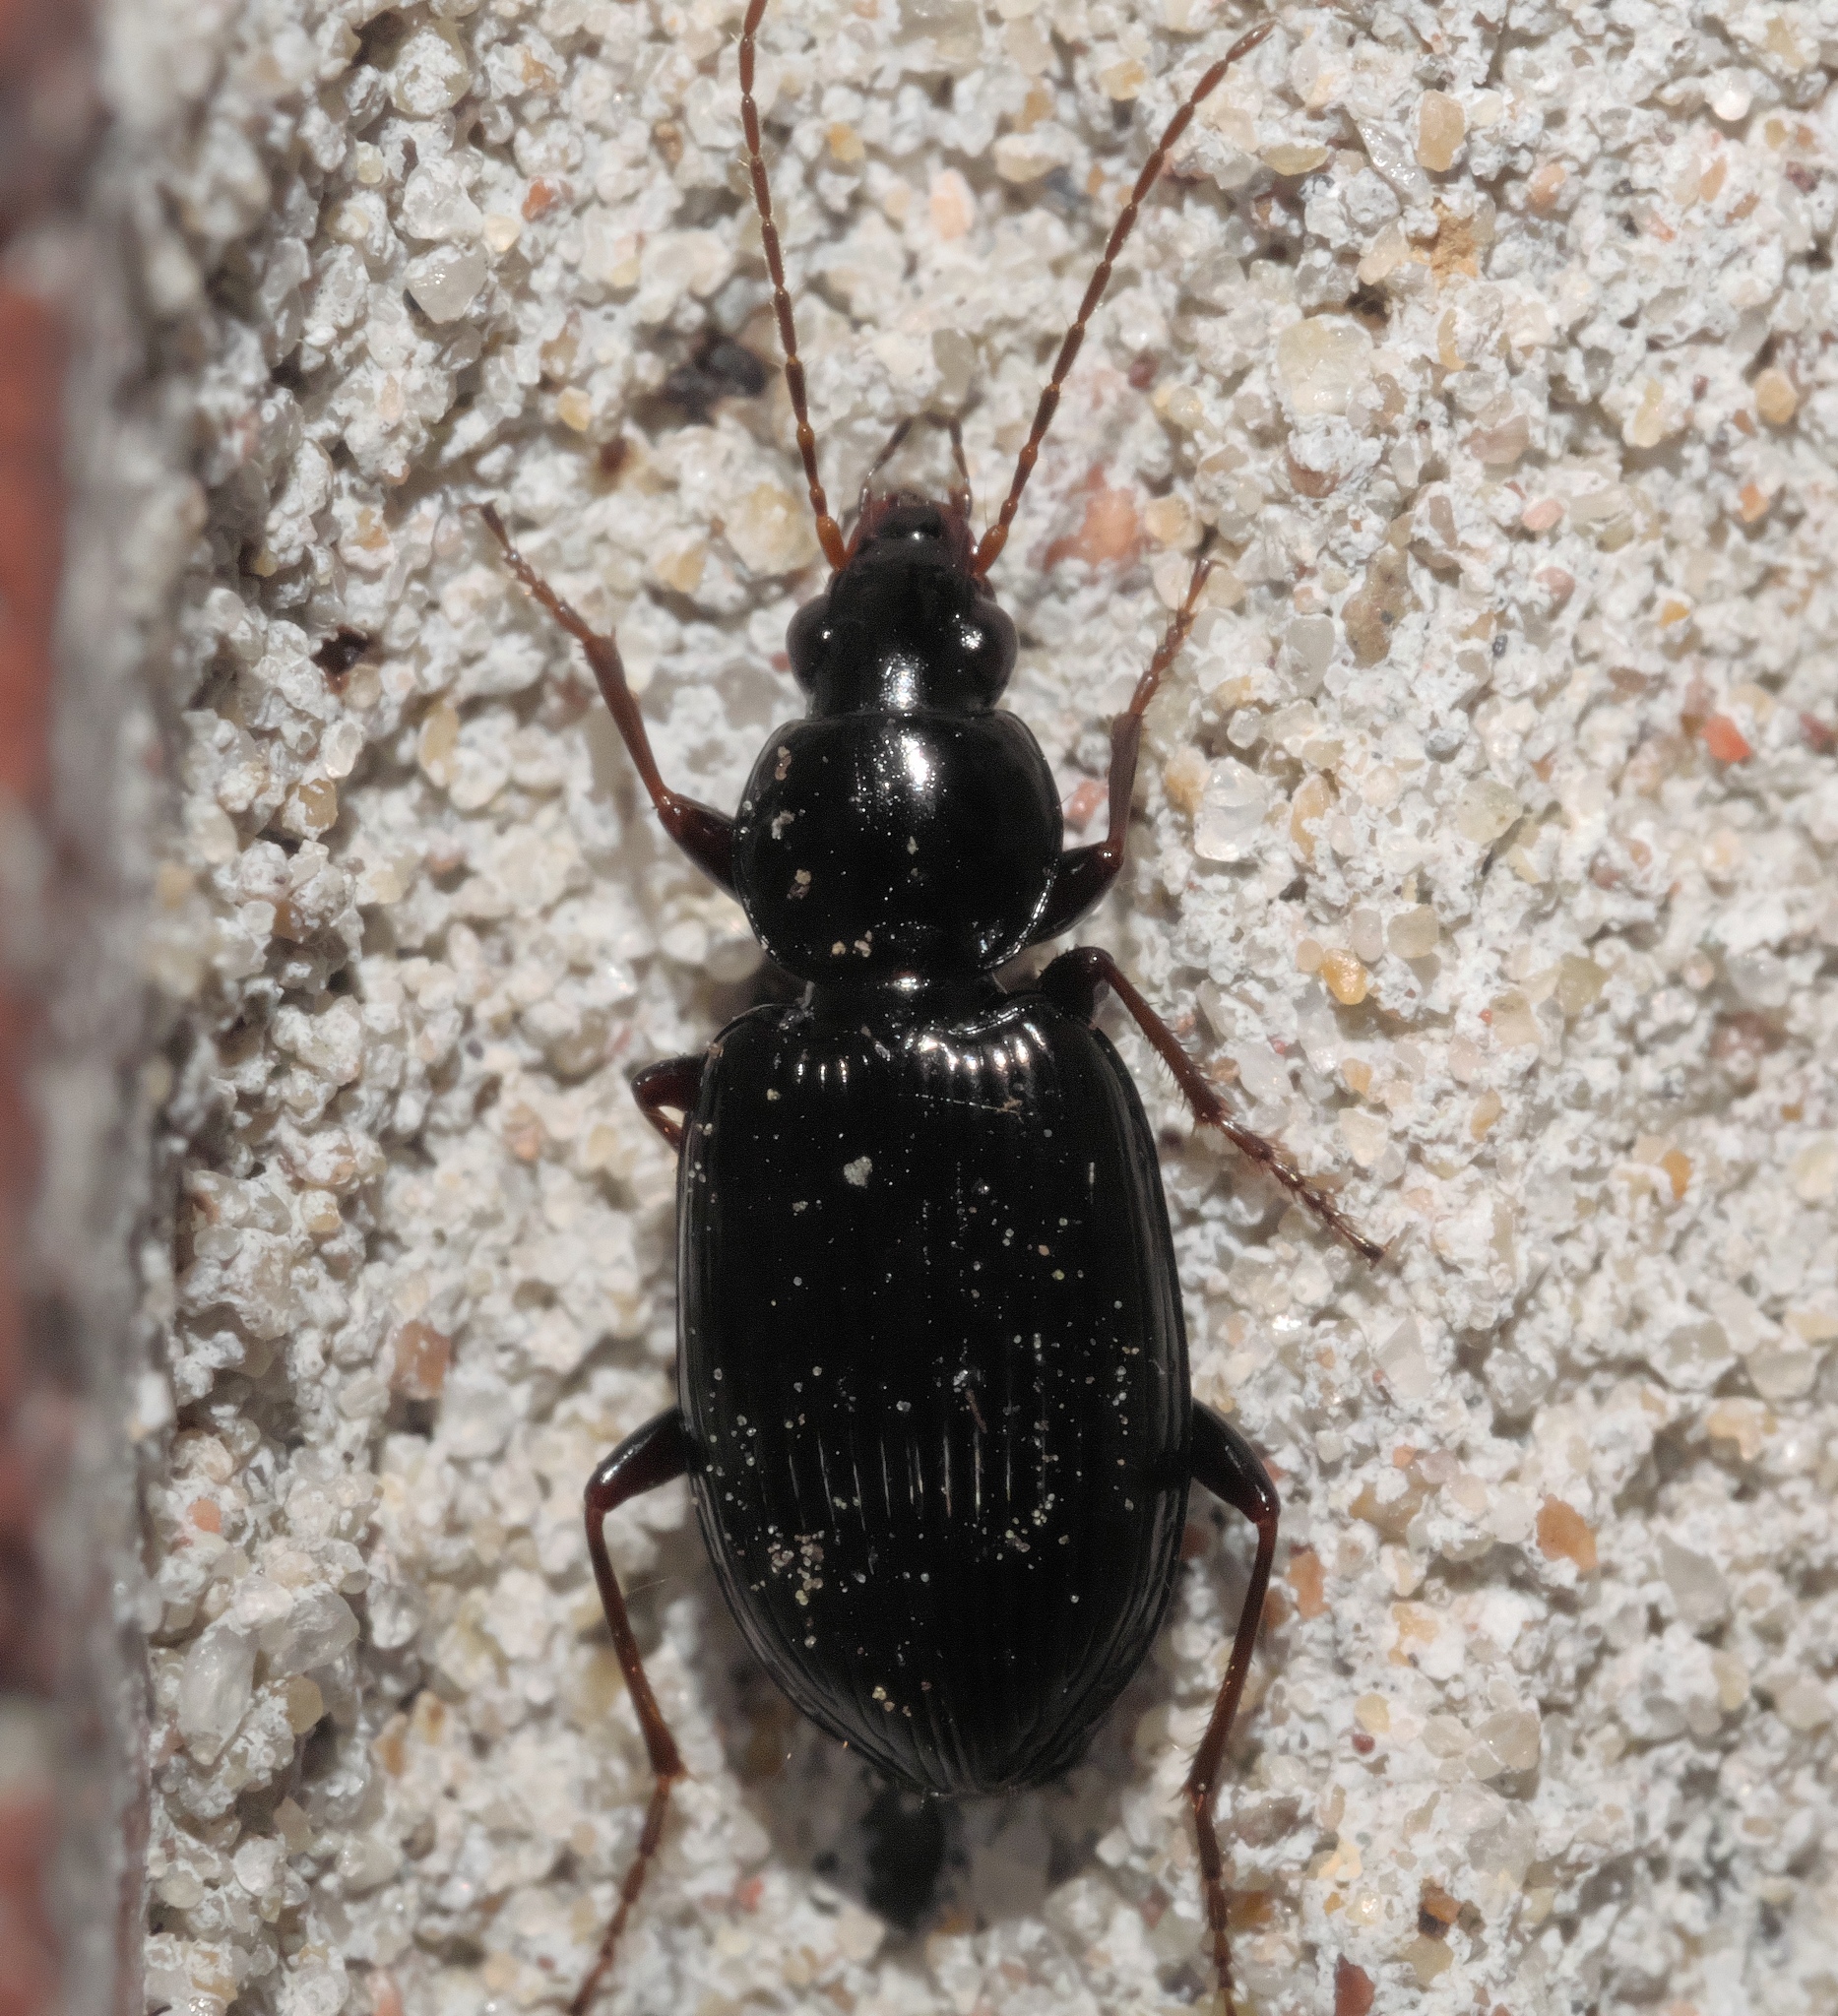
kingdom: Animalia
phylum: Arthropoda
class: Insecta
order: Coleoptera
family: Carabidae
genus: Agonum
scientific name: Agonum punctiforme
